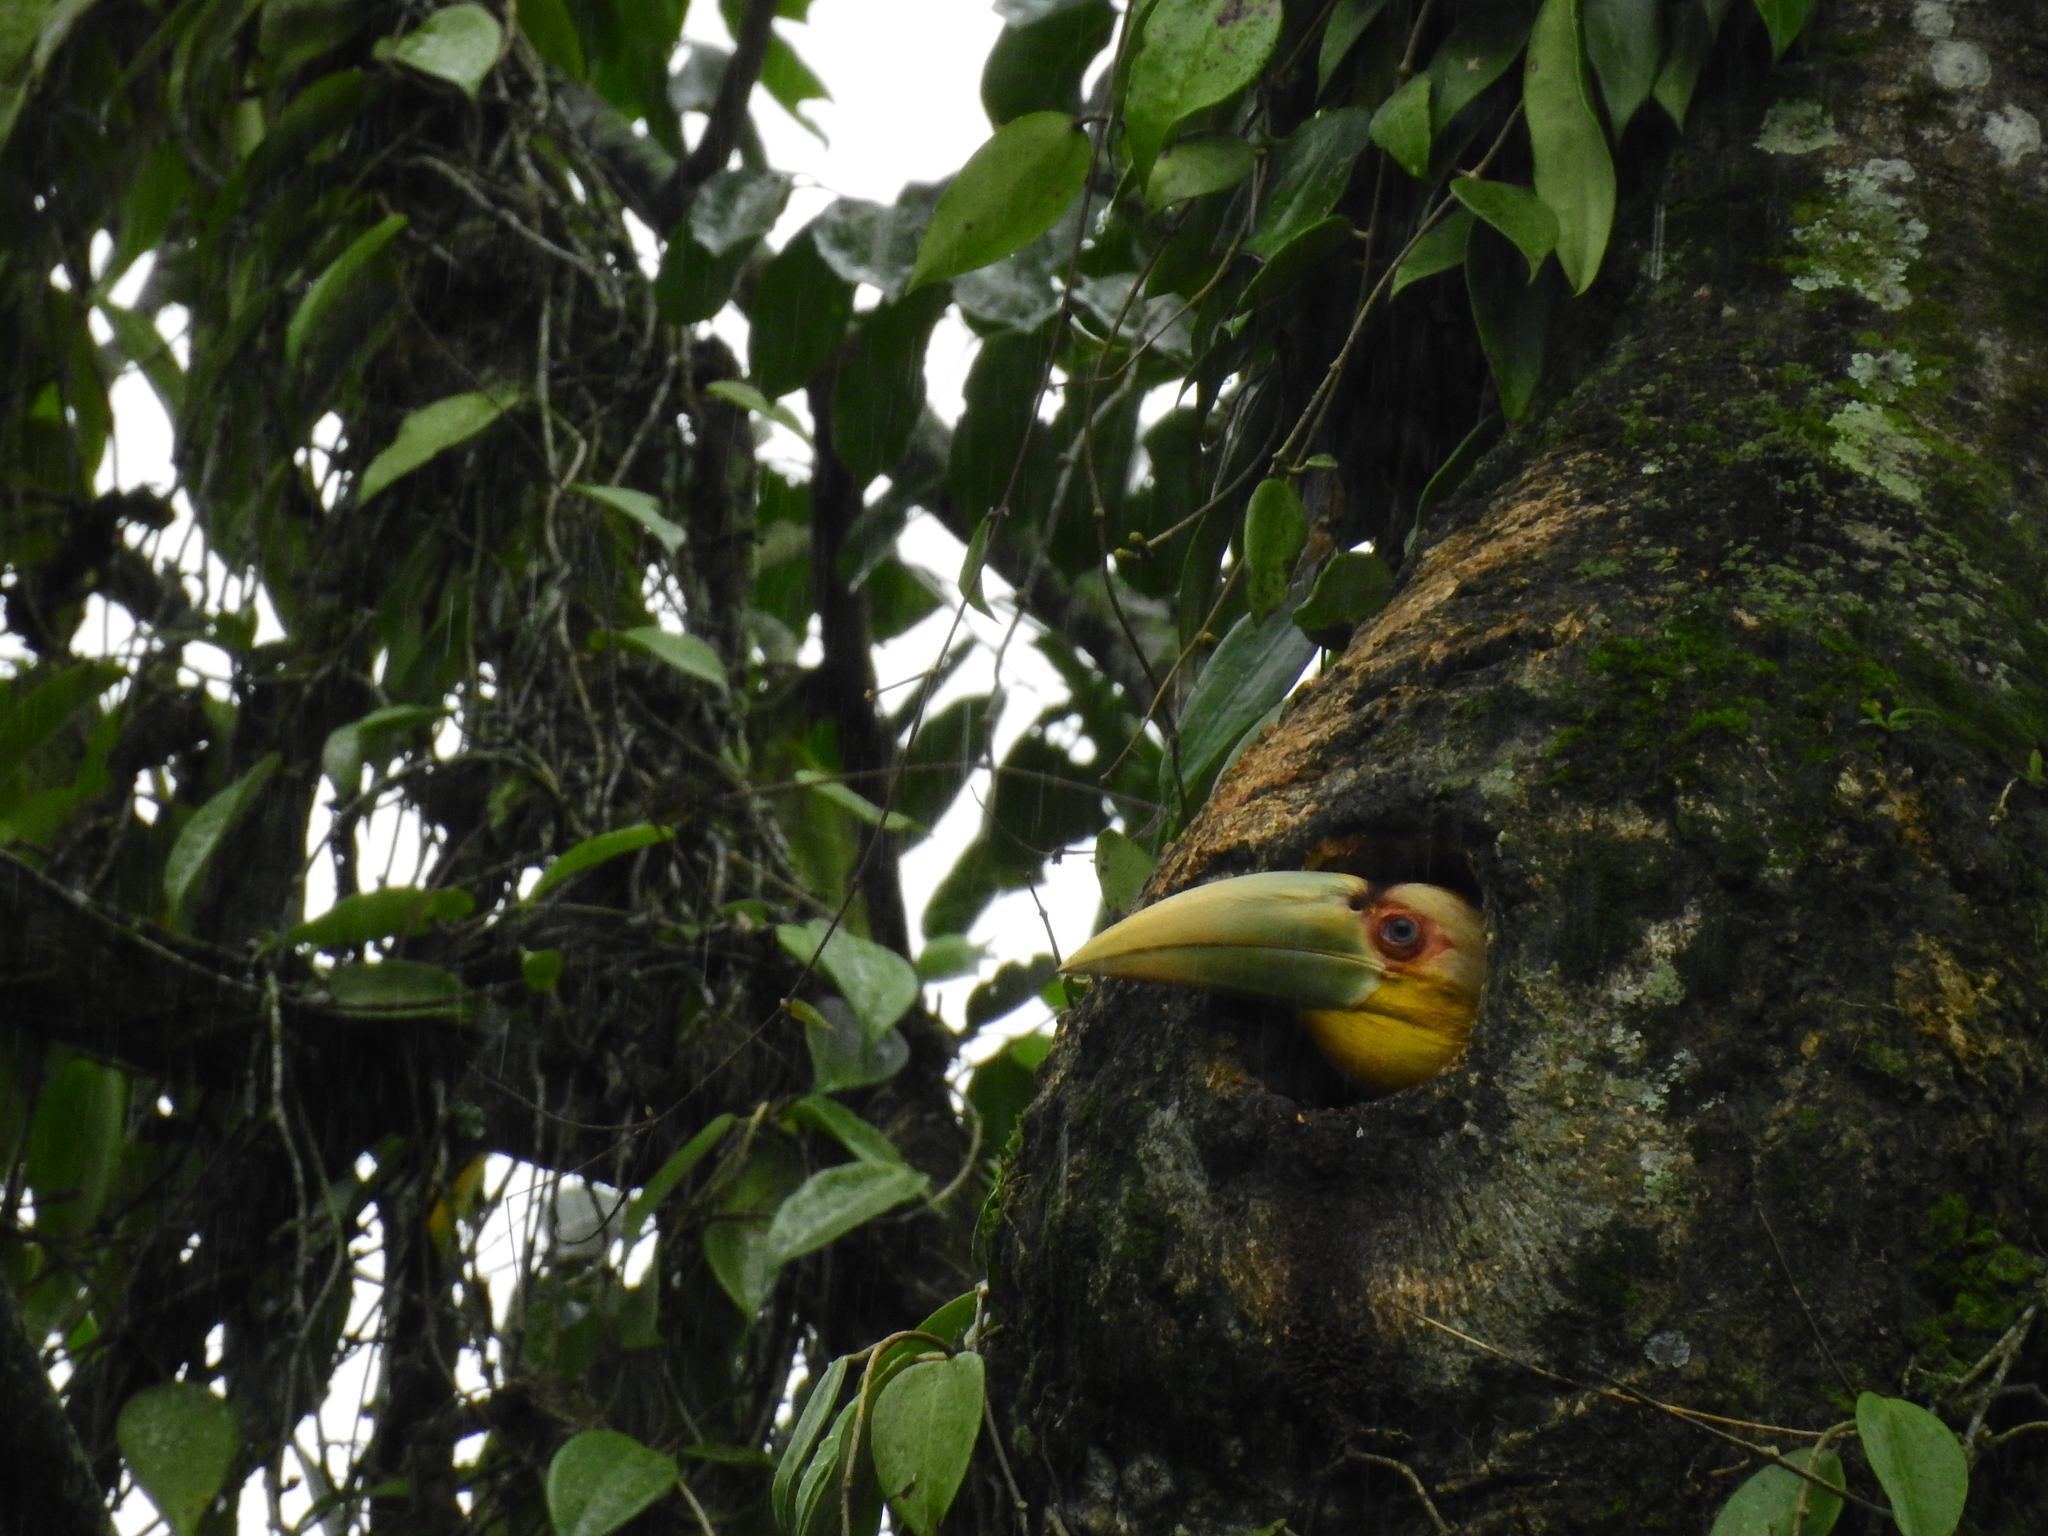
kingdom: Animalia
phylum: Chordata
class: Aves
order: Bucerotiformes
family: Bucerotidae
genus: Rhyticeros
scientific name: Rhyticeros undulatus
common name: Wreathed hornbill
